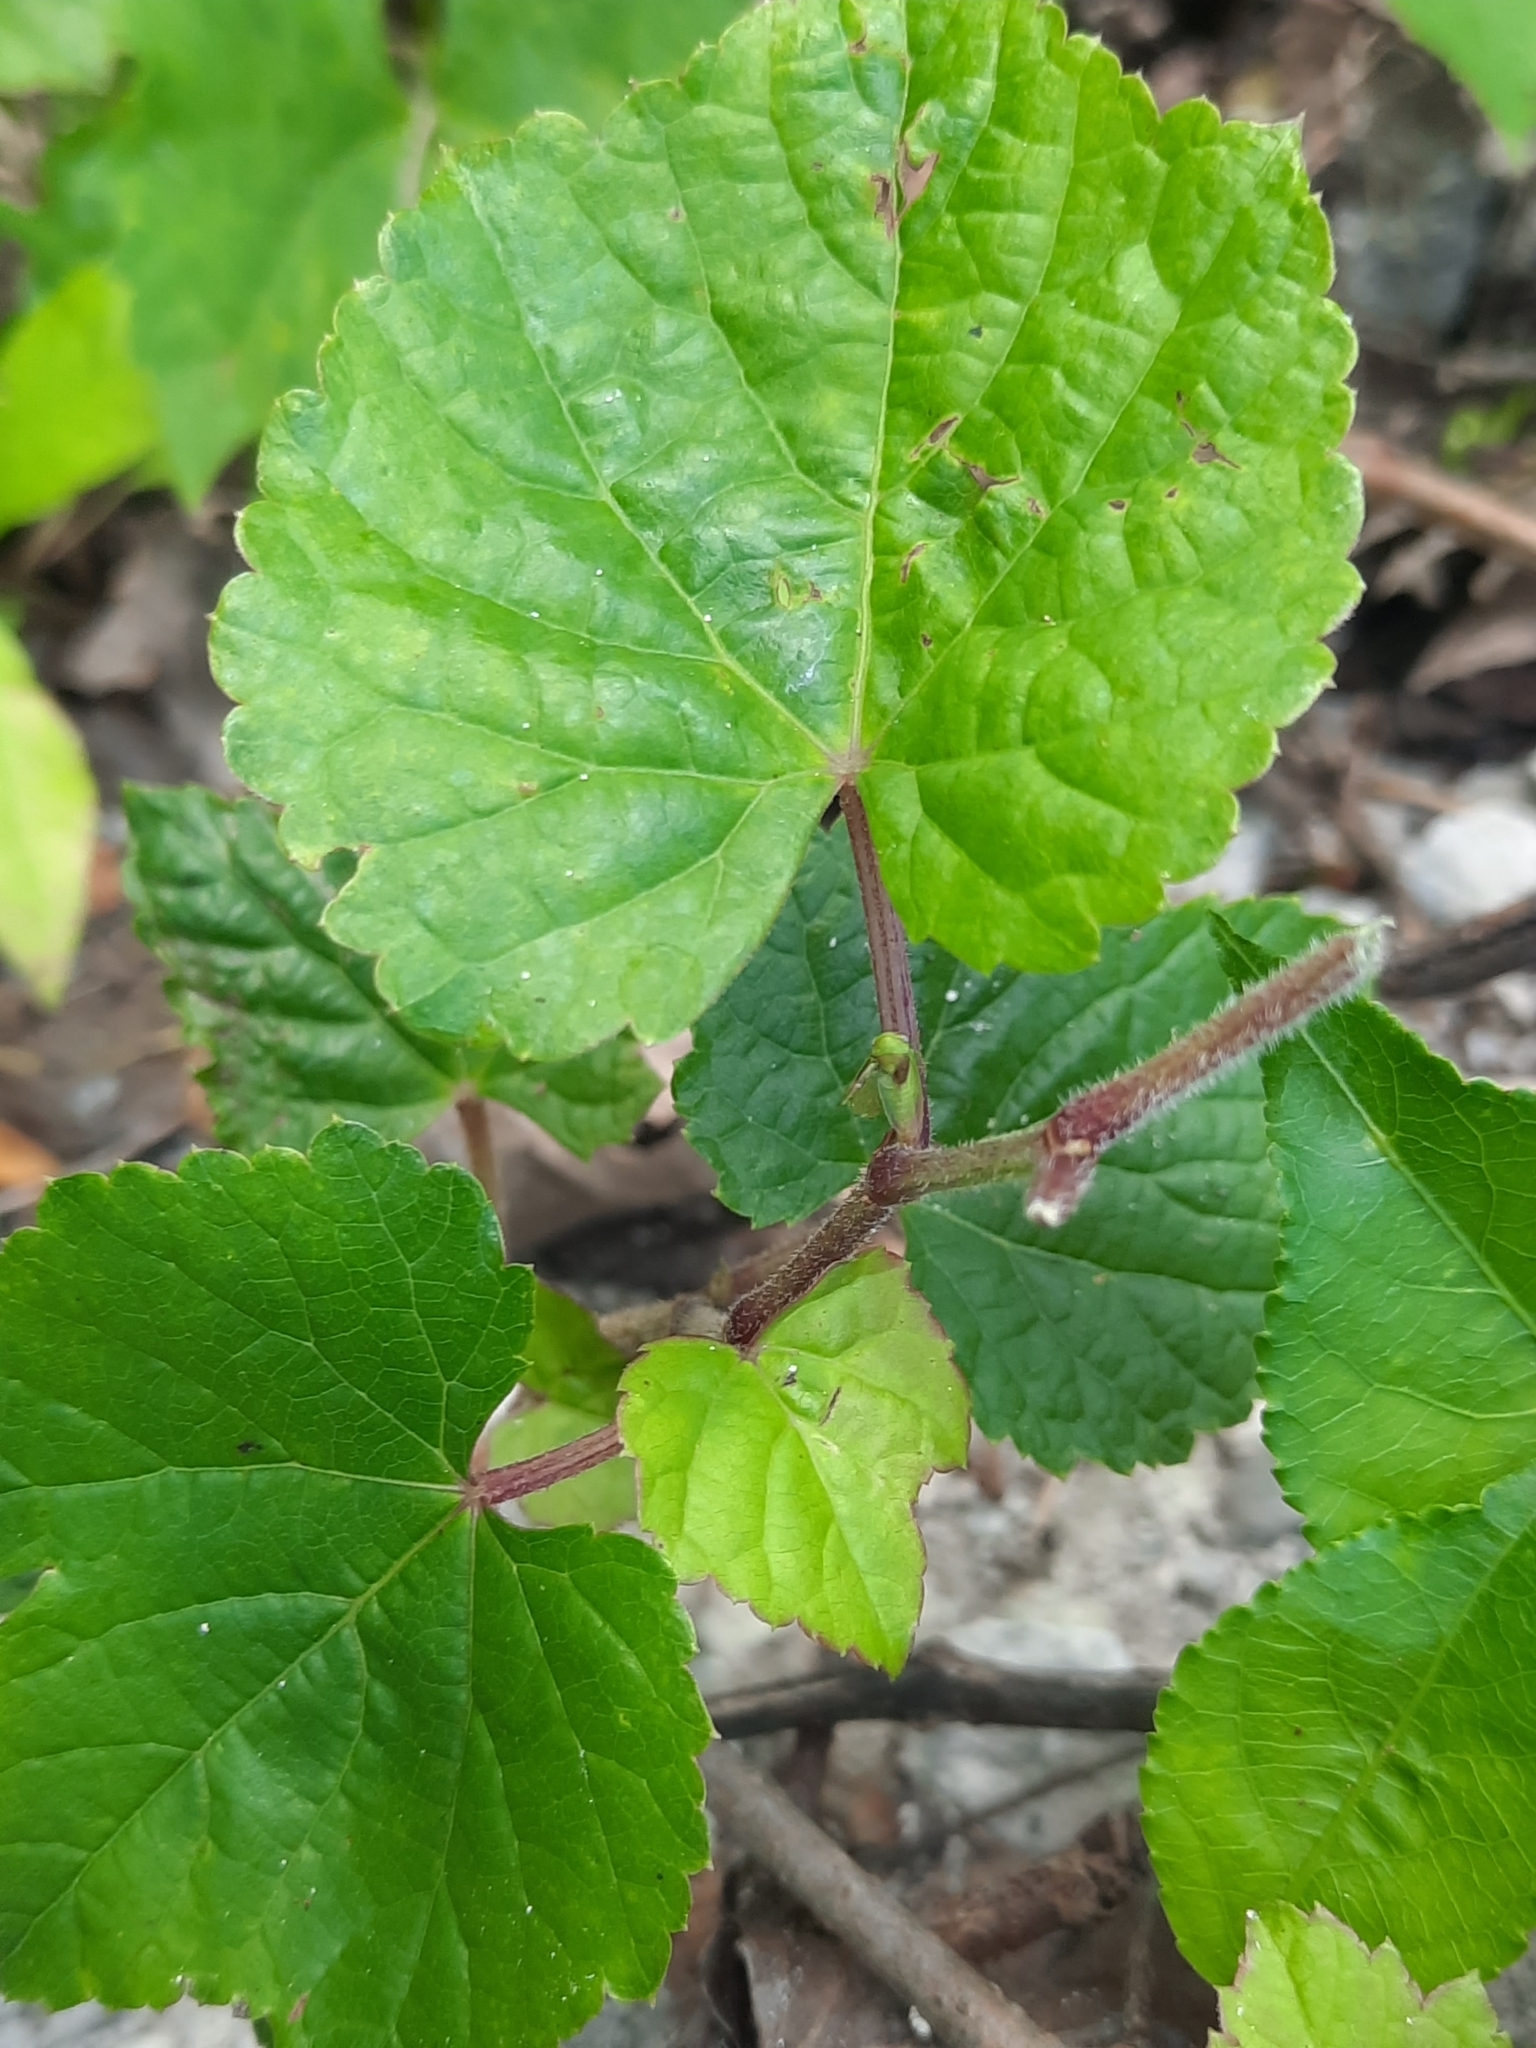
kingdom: Plantae
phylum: Tracheophyta
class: Magnoliopsida
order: Vitales
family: Vitaceae
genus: Ampelopsis
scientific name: Ampelopsis glandulosa
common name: Amur peppervine
